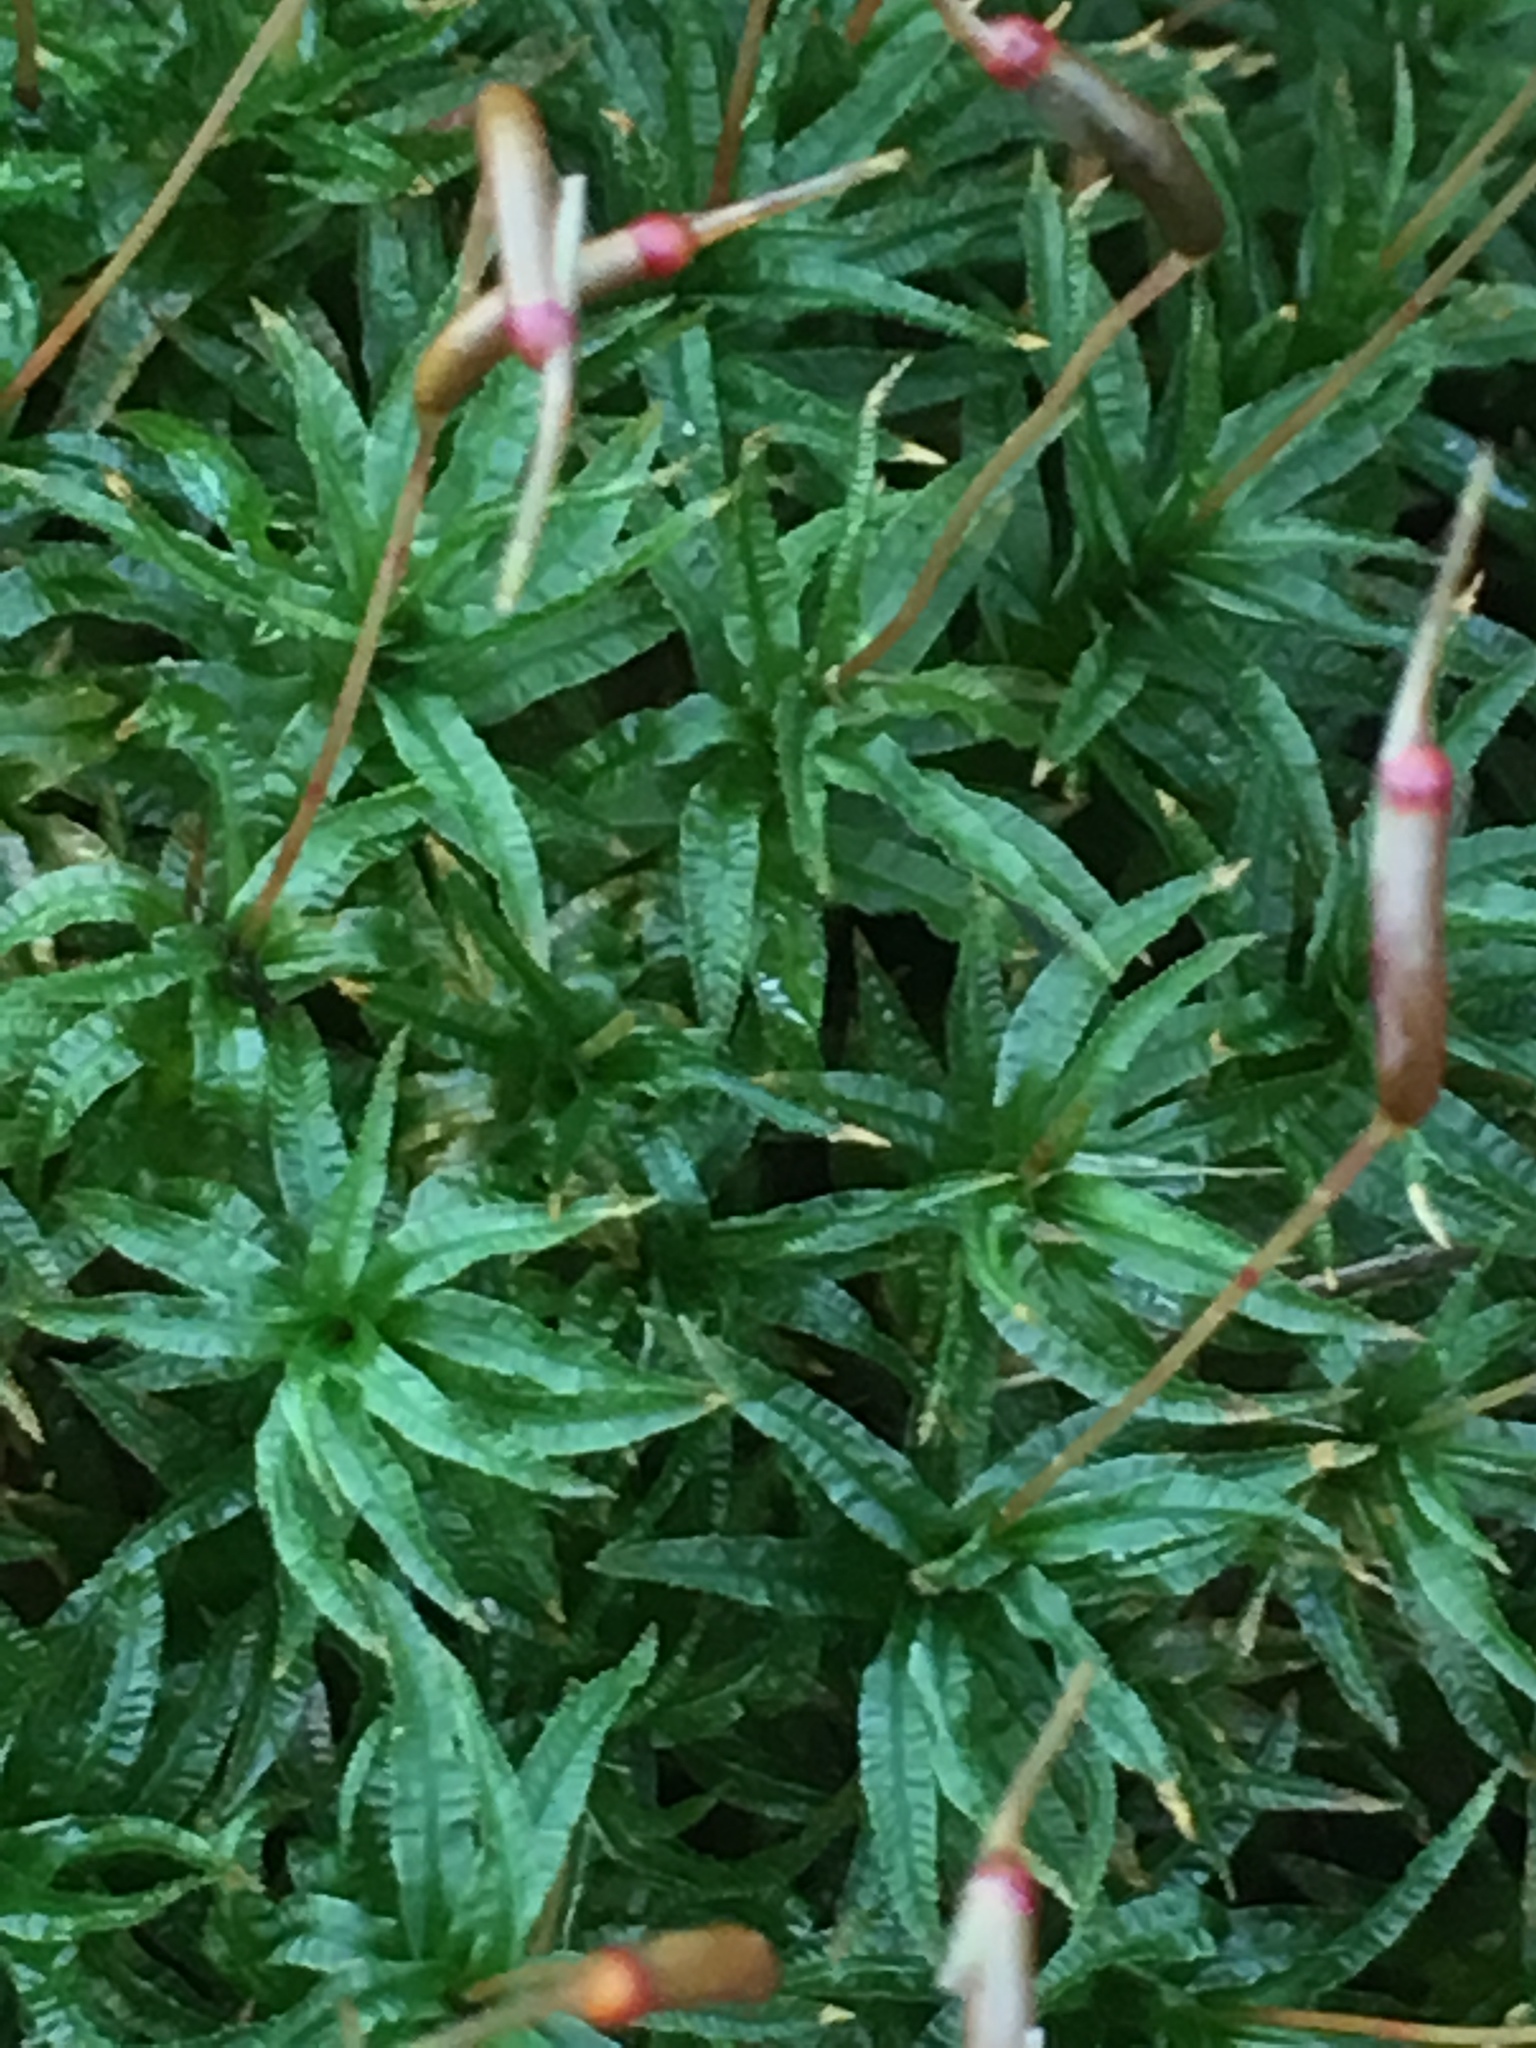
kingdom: Plantae
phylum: Bryophyta
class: Polytrichopsida
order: Polytrichales
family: Polytrichaceae
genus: Atrichum
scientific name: Atrichum undulatum
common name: Common smoothcap
